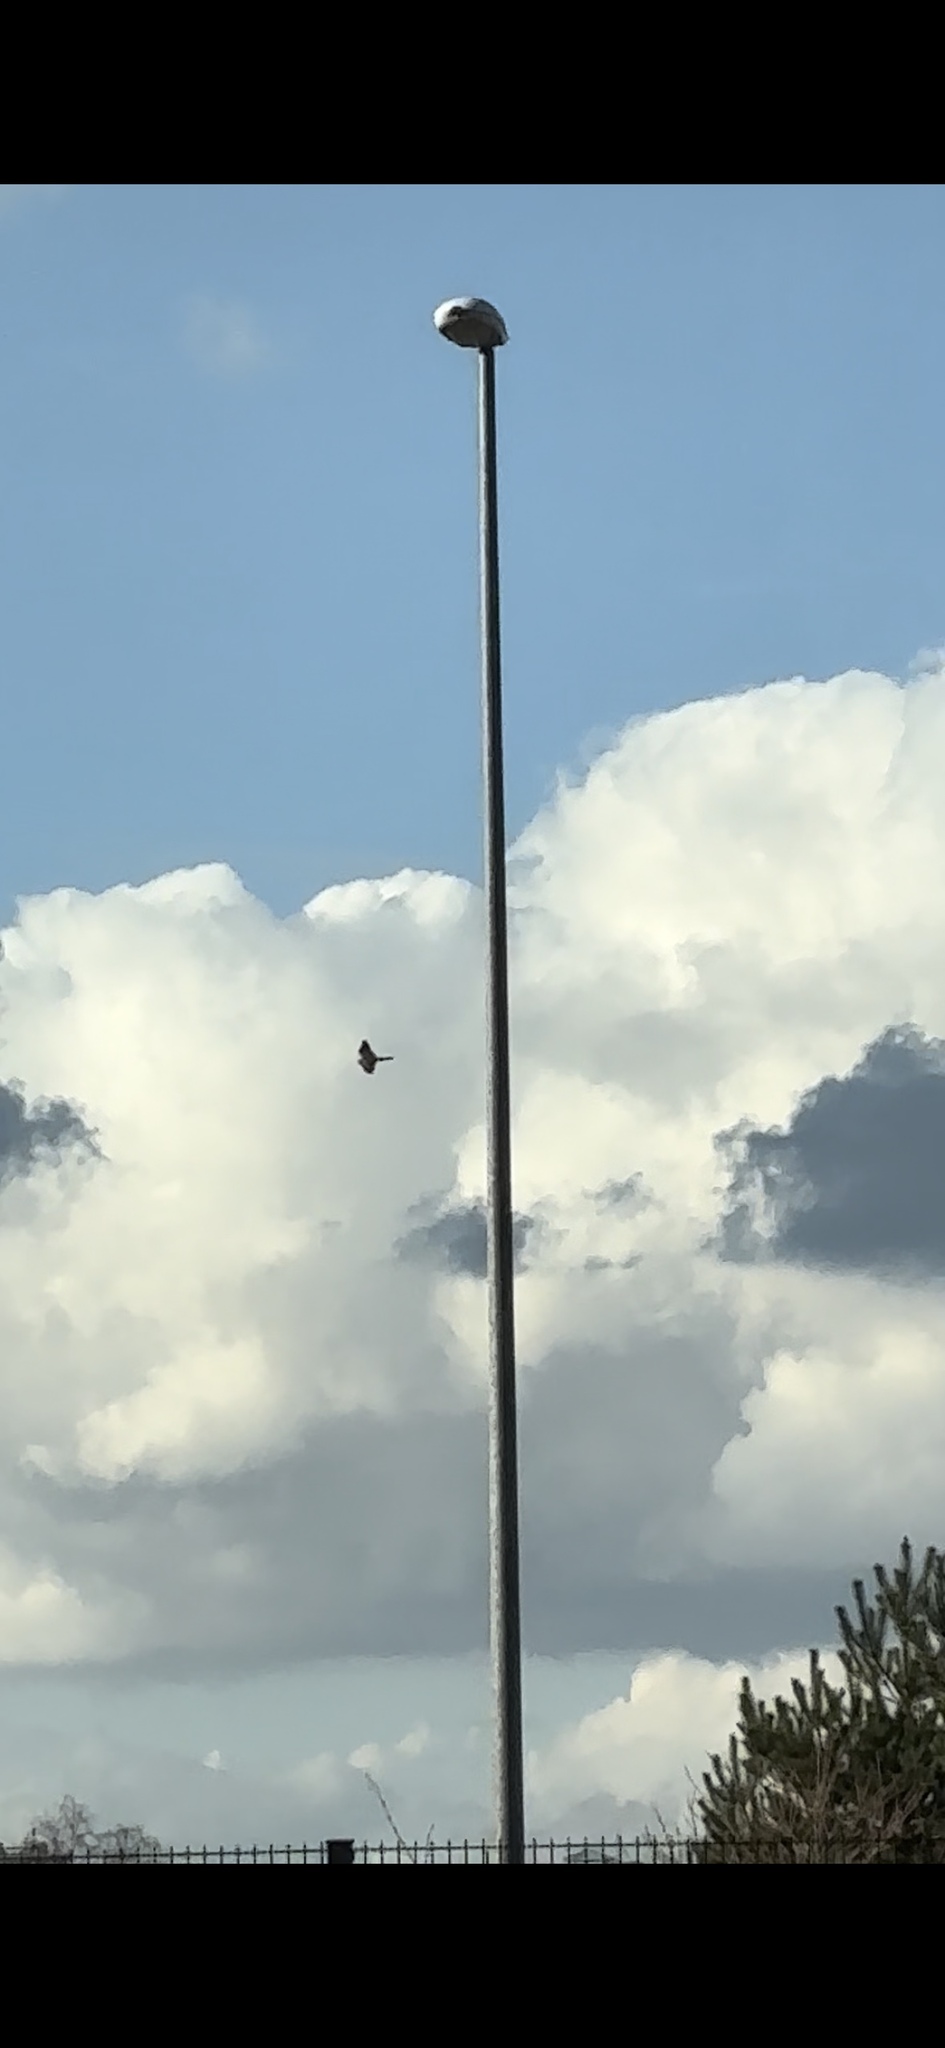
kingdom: Animalia
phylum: Chordata
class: Aves
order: Falconiformes
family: Falconidae
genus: Falco
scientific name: Falco tinnunculus
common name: Common kestrel
